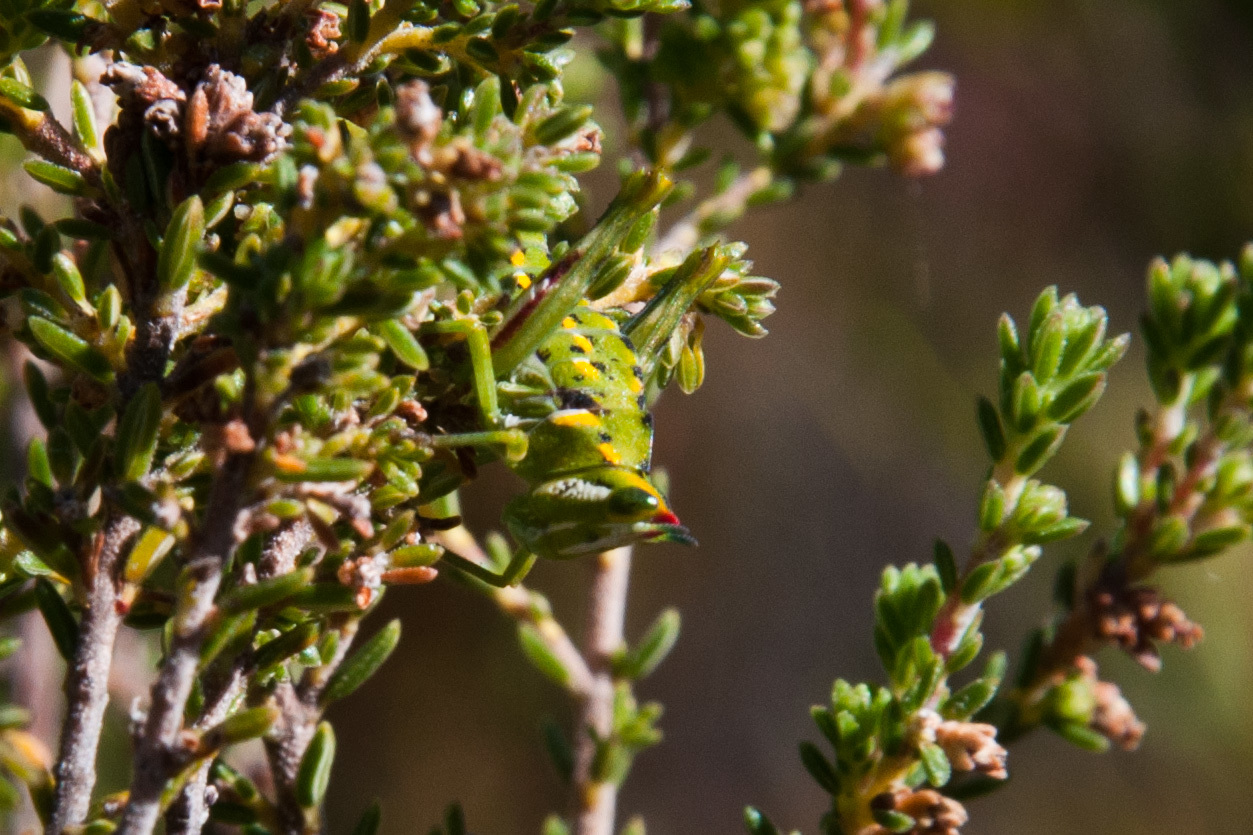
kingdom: Animalia
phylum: Arthropoda
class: Insecta
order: Orthoptera
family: Thericleidae
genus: Thericlesiella
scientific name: Thericlesiella meridionalis
